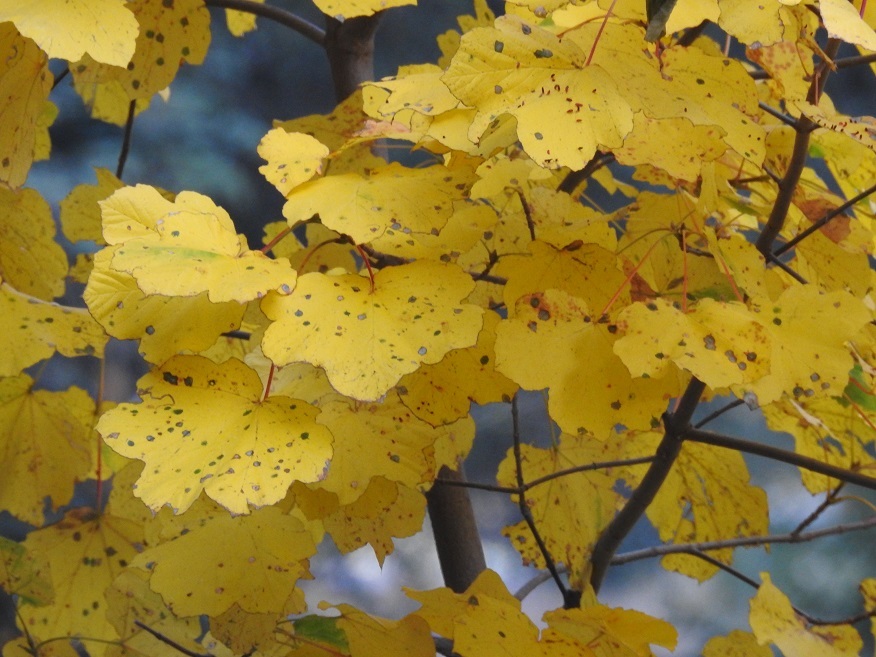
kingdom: Plantae
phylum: Tracheophyta
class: Magnoliopsida
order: Sapindales
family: Sapindaceae
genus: Acer
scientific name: Acer opalus
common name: Italian maple
